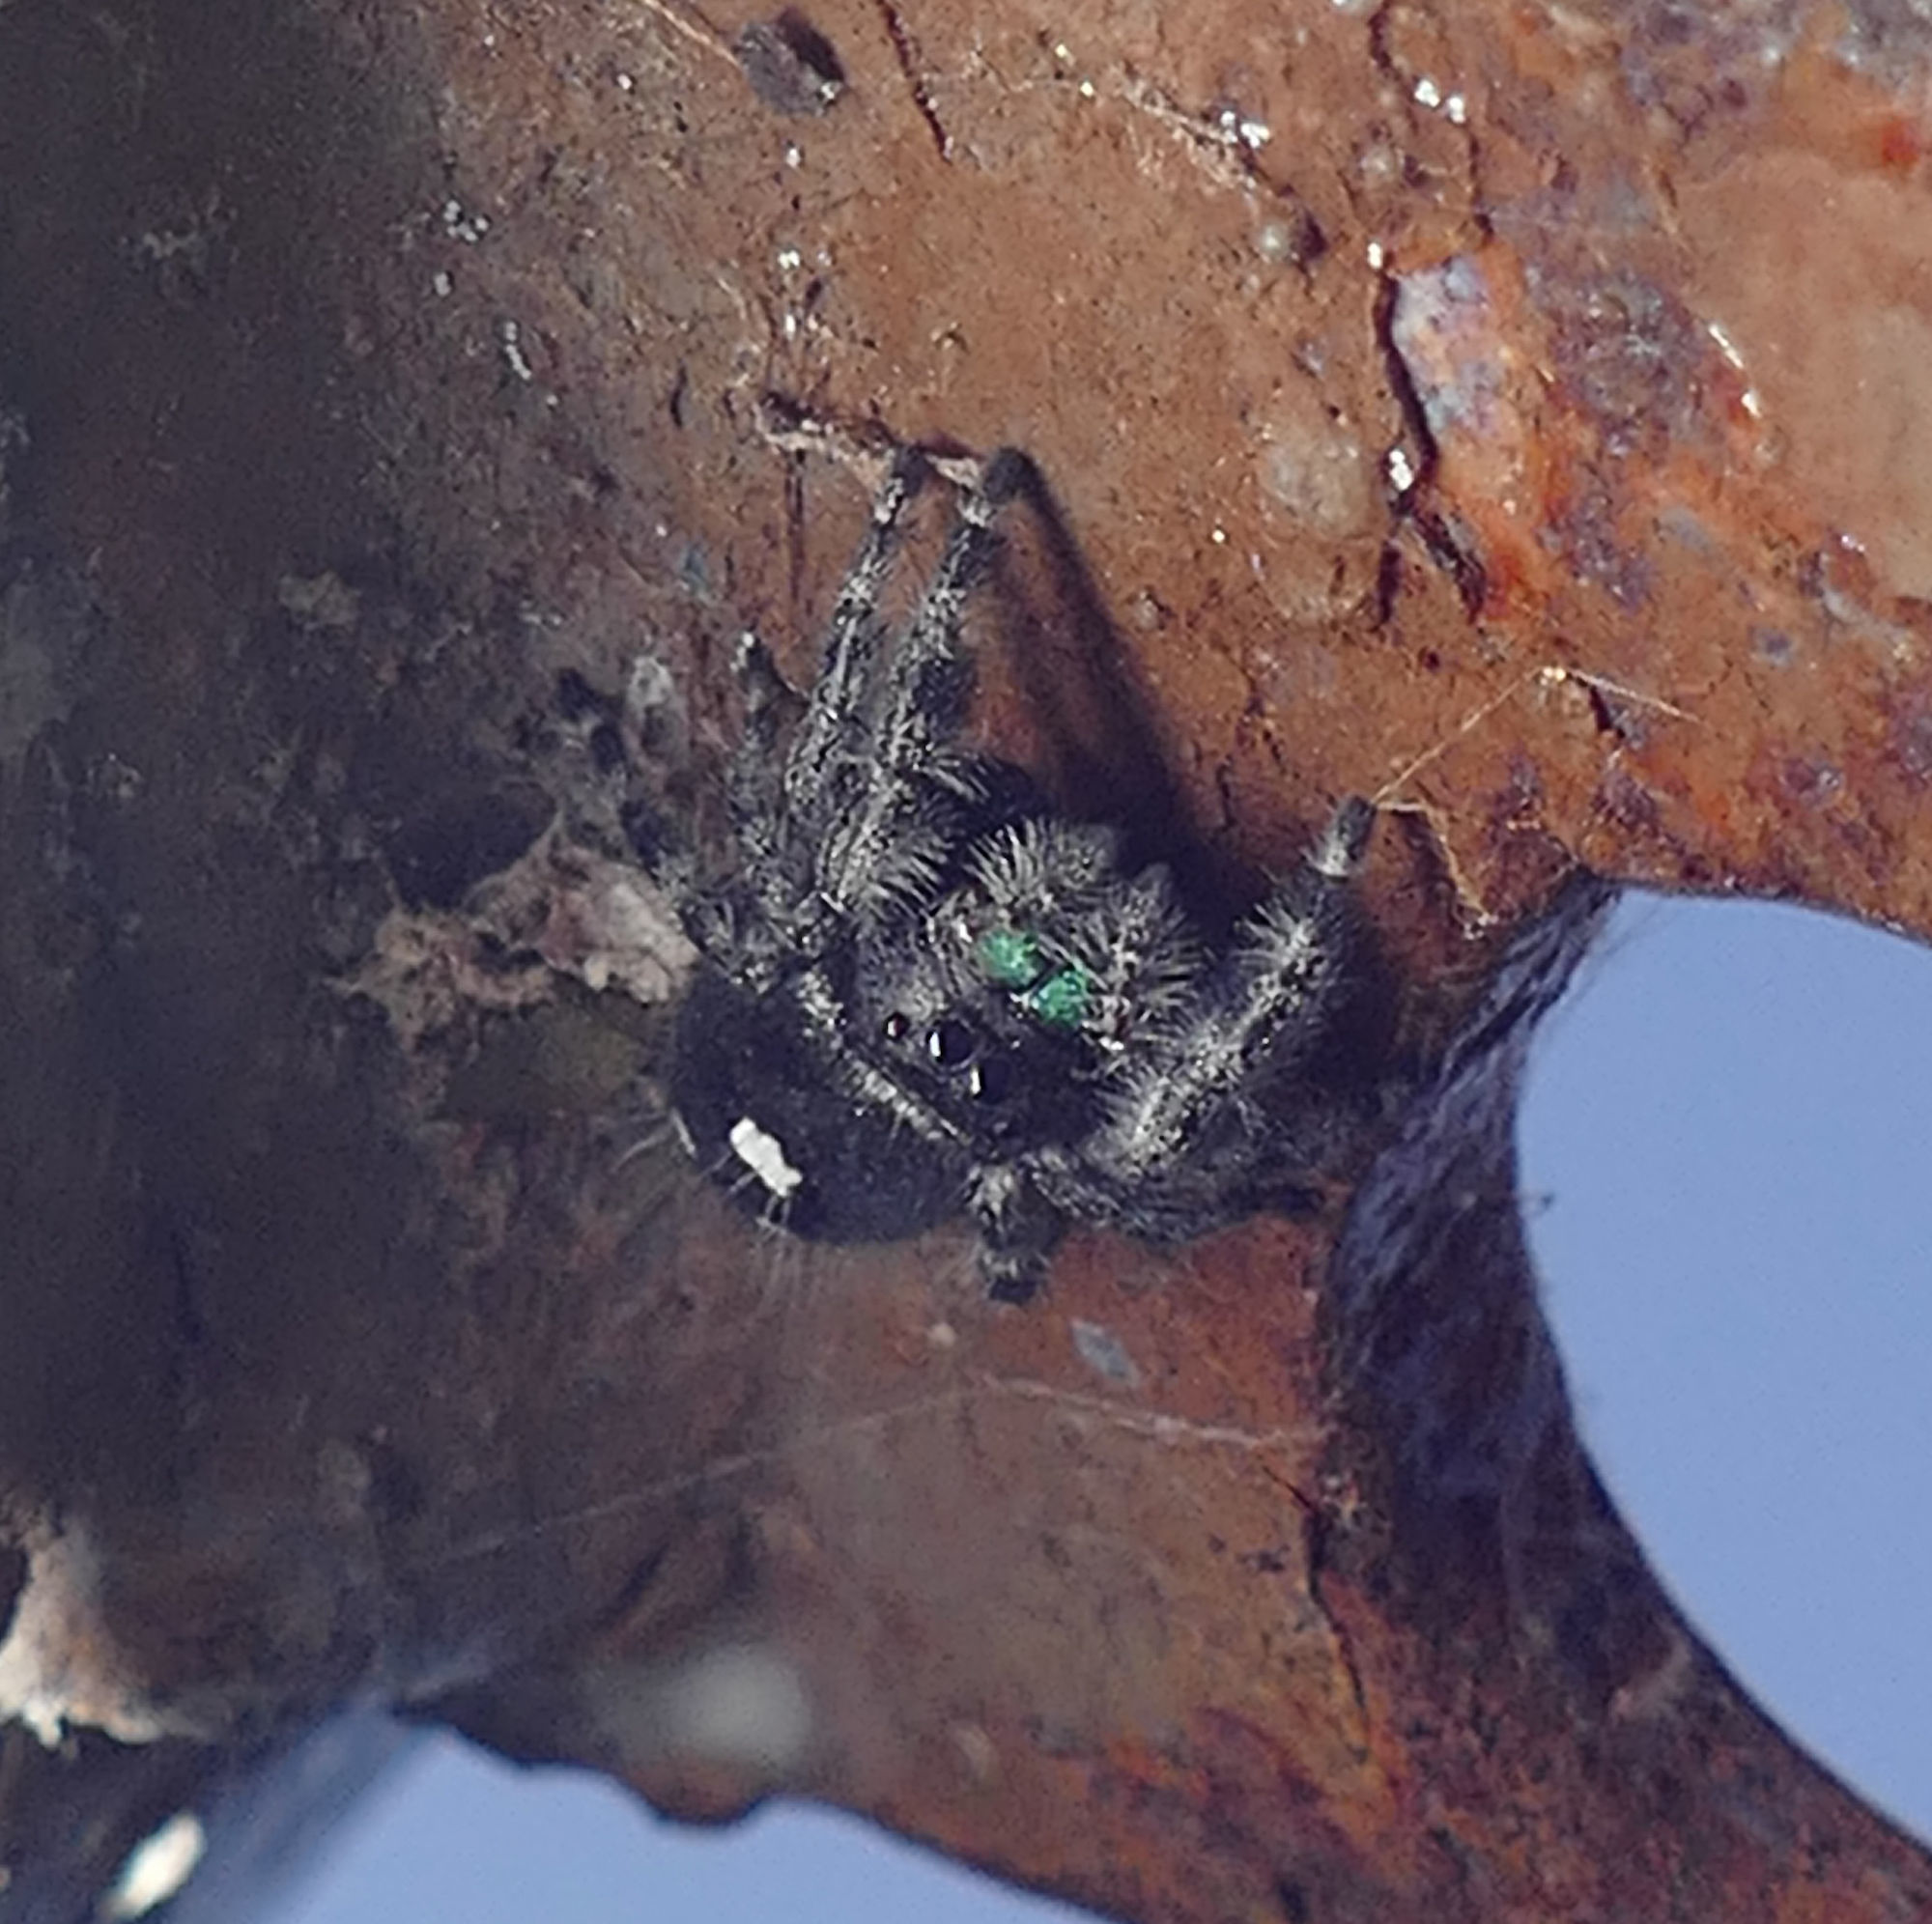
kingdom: Animalia
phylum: Arthropoda
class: Arachnida
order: Araneae
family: Salticidae
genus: Phidippus
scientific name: Phidippus audax
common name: Bold jumper
